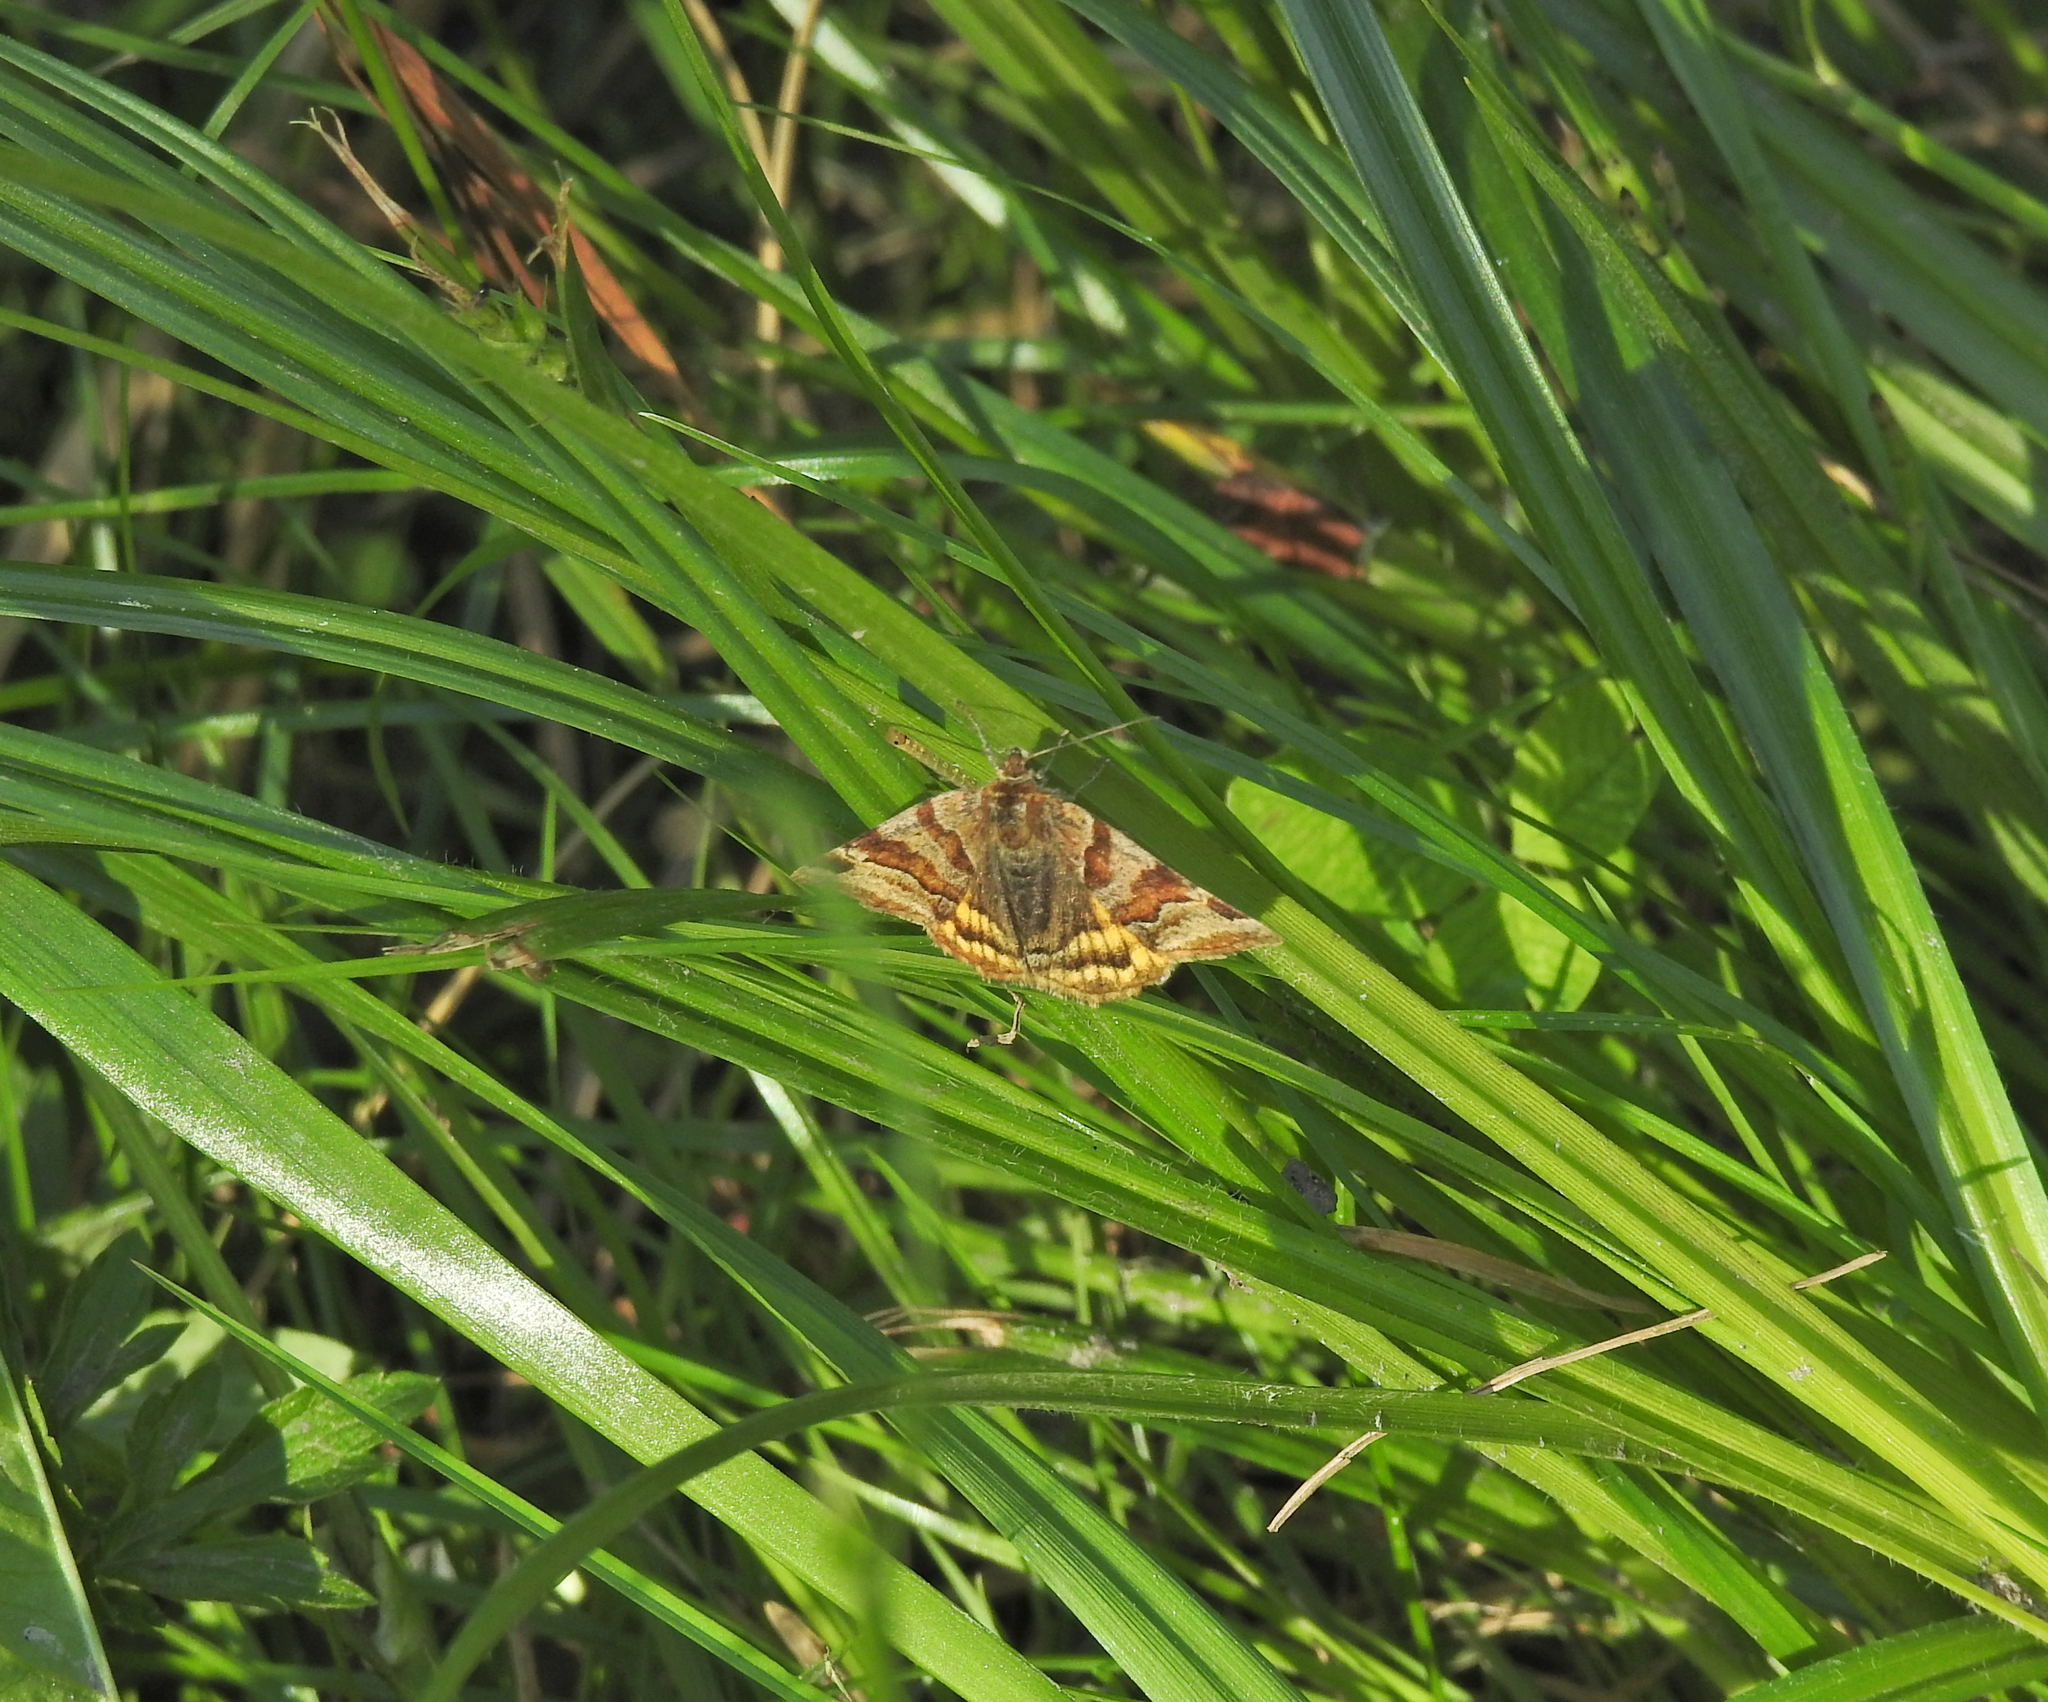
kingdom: Animalia
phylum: Arthropoda
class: Insecta
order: Lepidoptera
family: Erebidae
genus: Euclidia
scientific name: Euclidia glyphica
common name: Burnet companion
